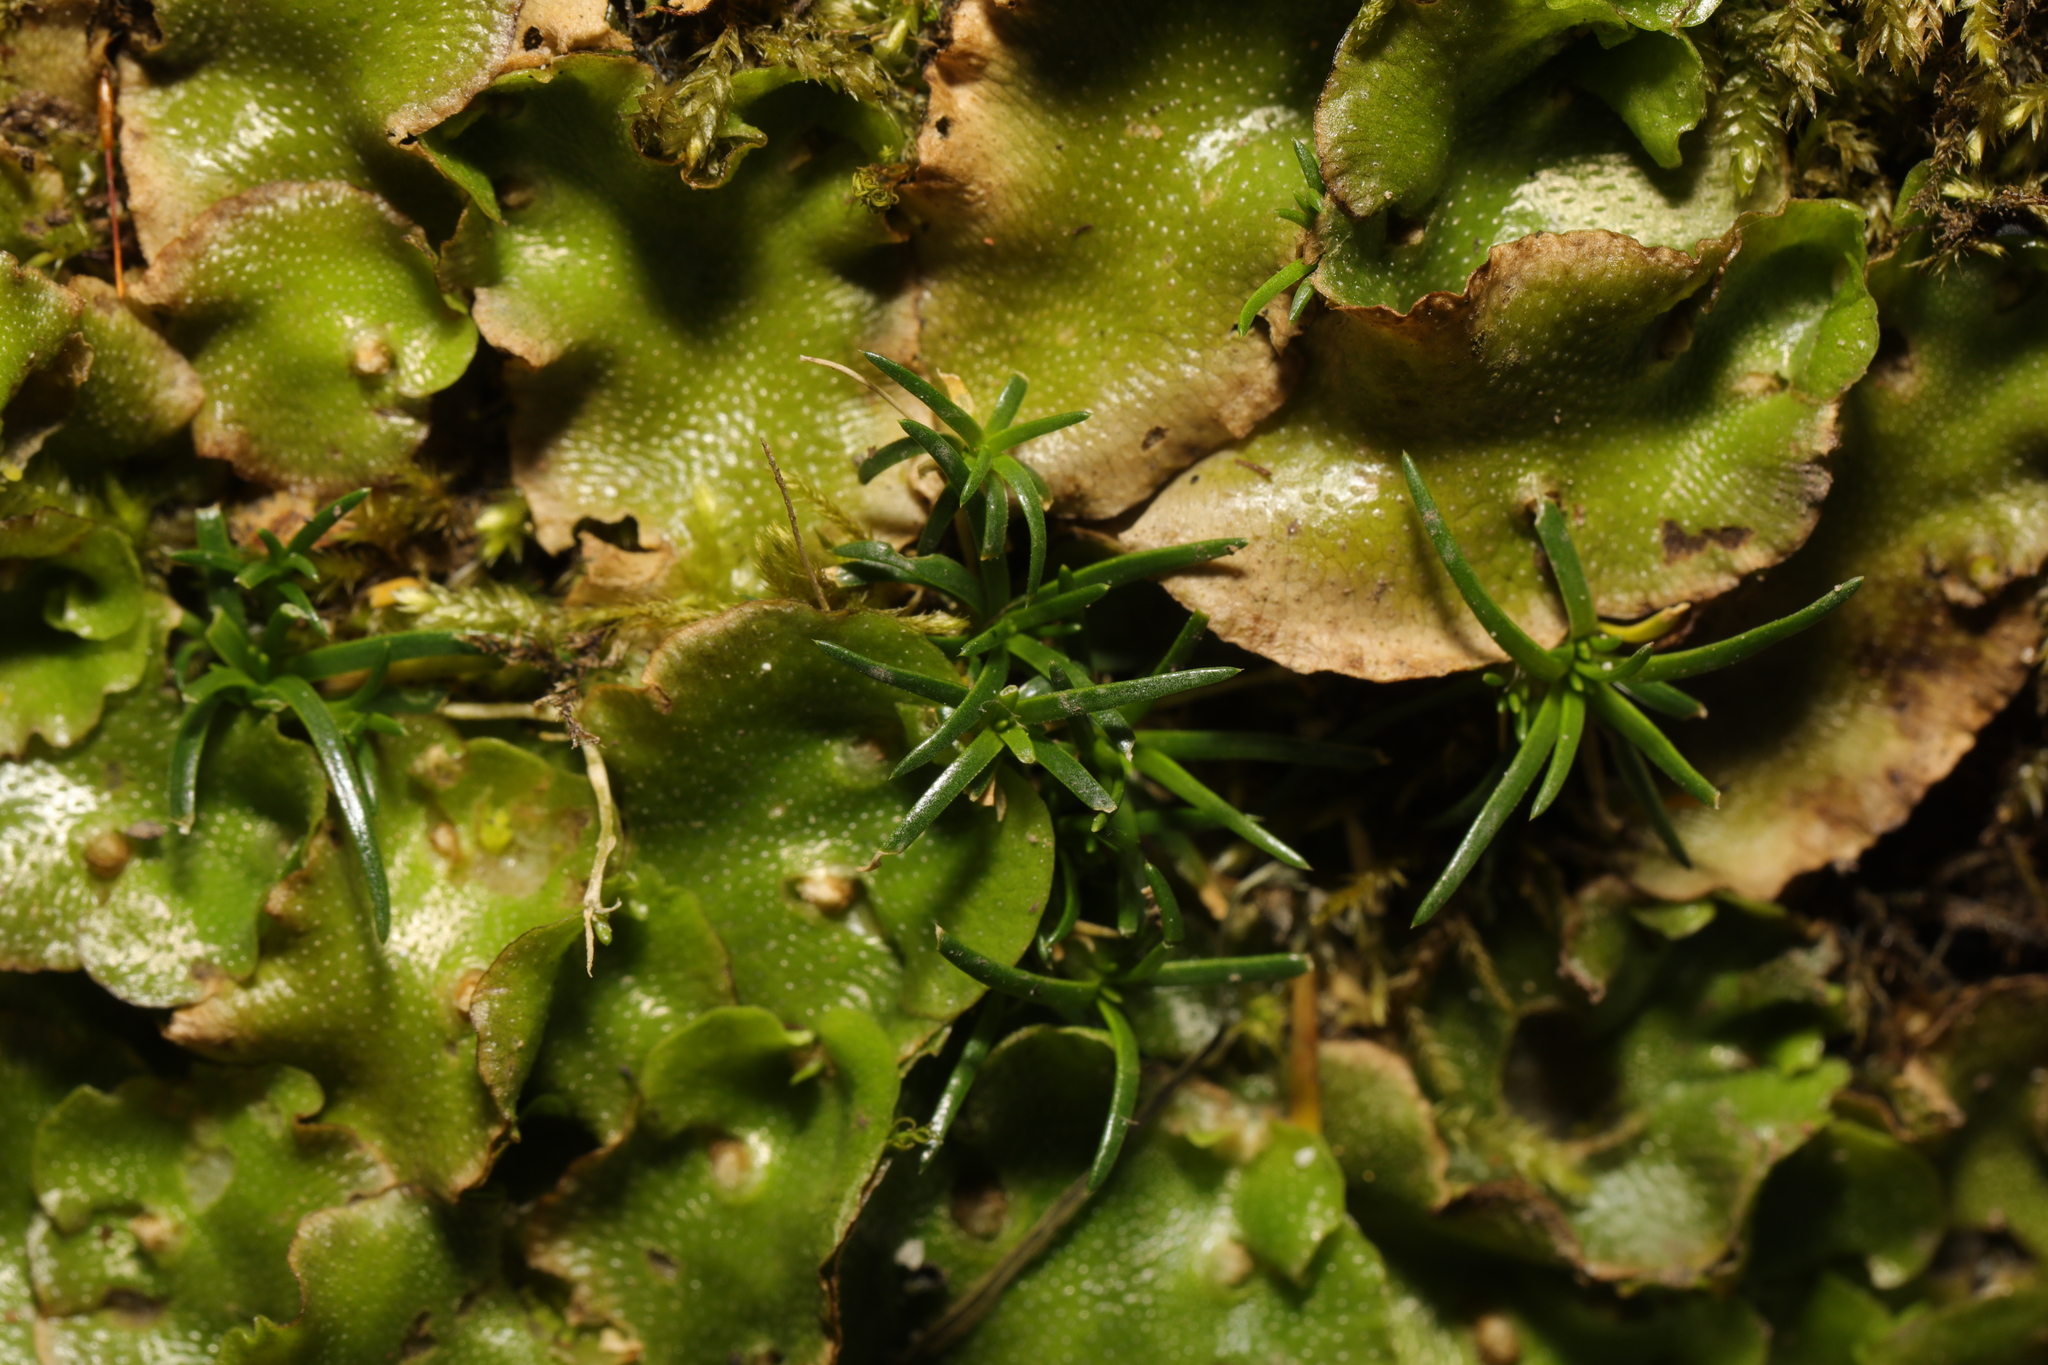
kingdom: Plantae
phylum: Marchantiophyta
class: Marchantiopsida
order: Lunulariales
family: Lunulariaceae
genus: Lunularia
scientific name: Lunularia cruciata
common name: Crescent-cup liverwort
